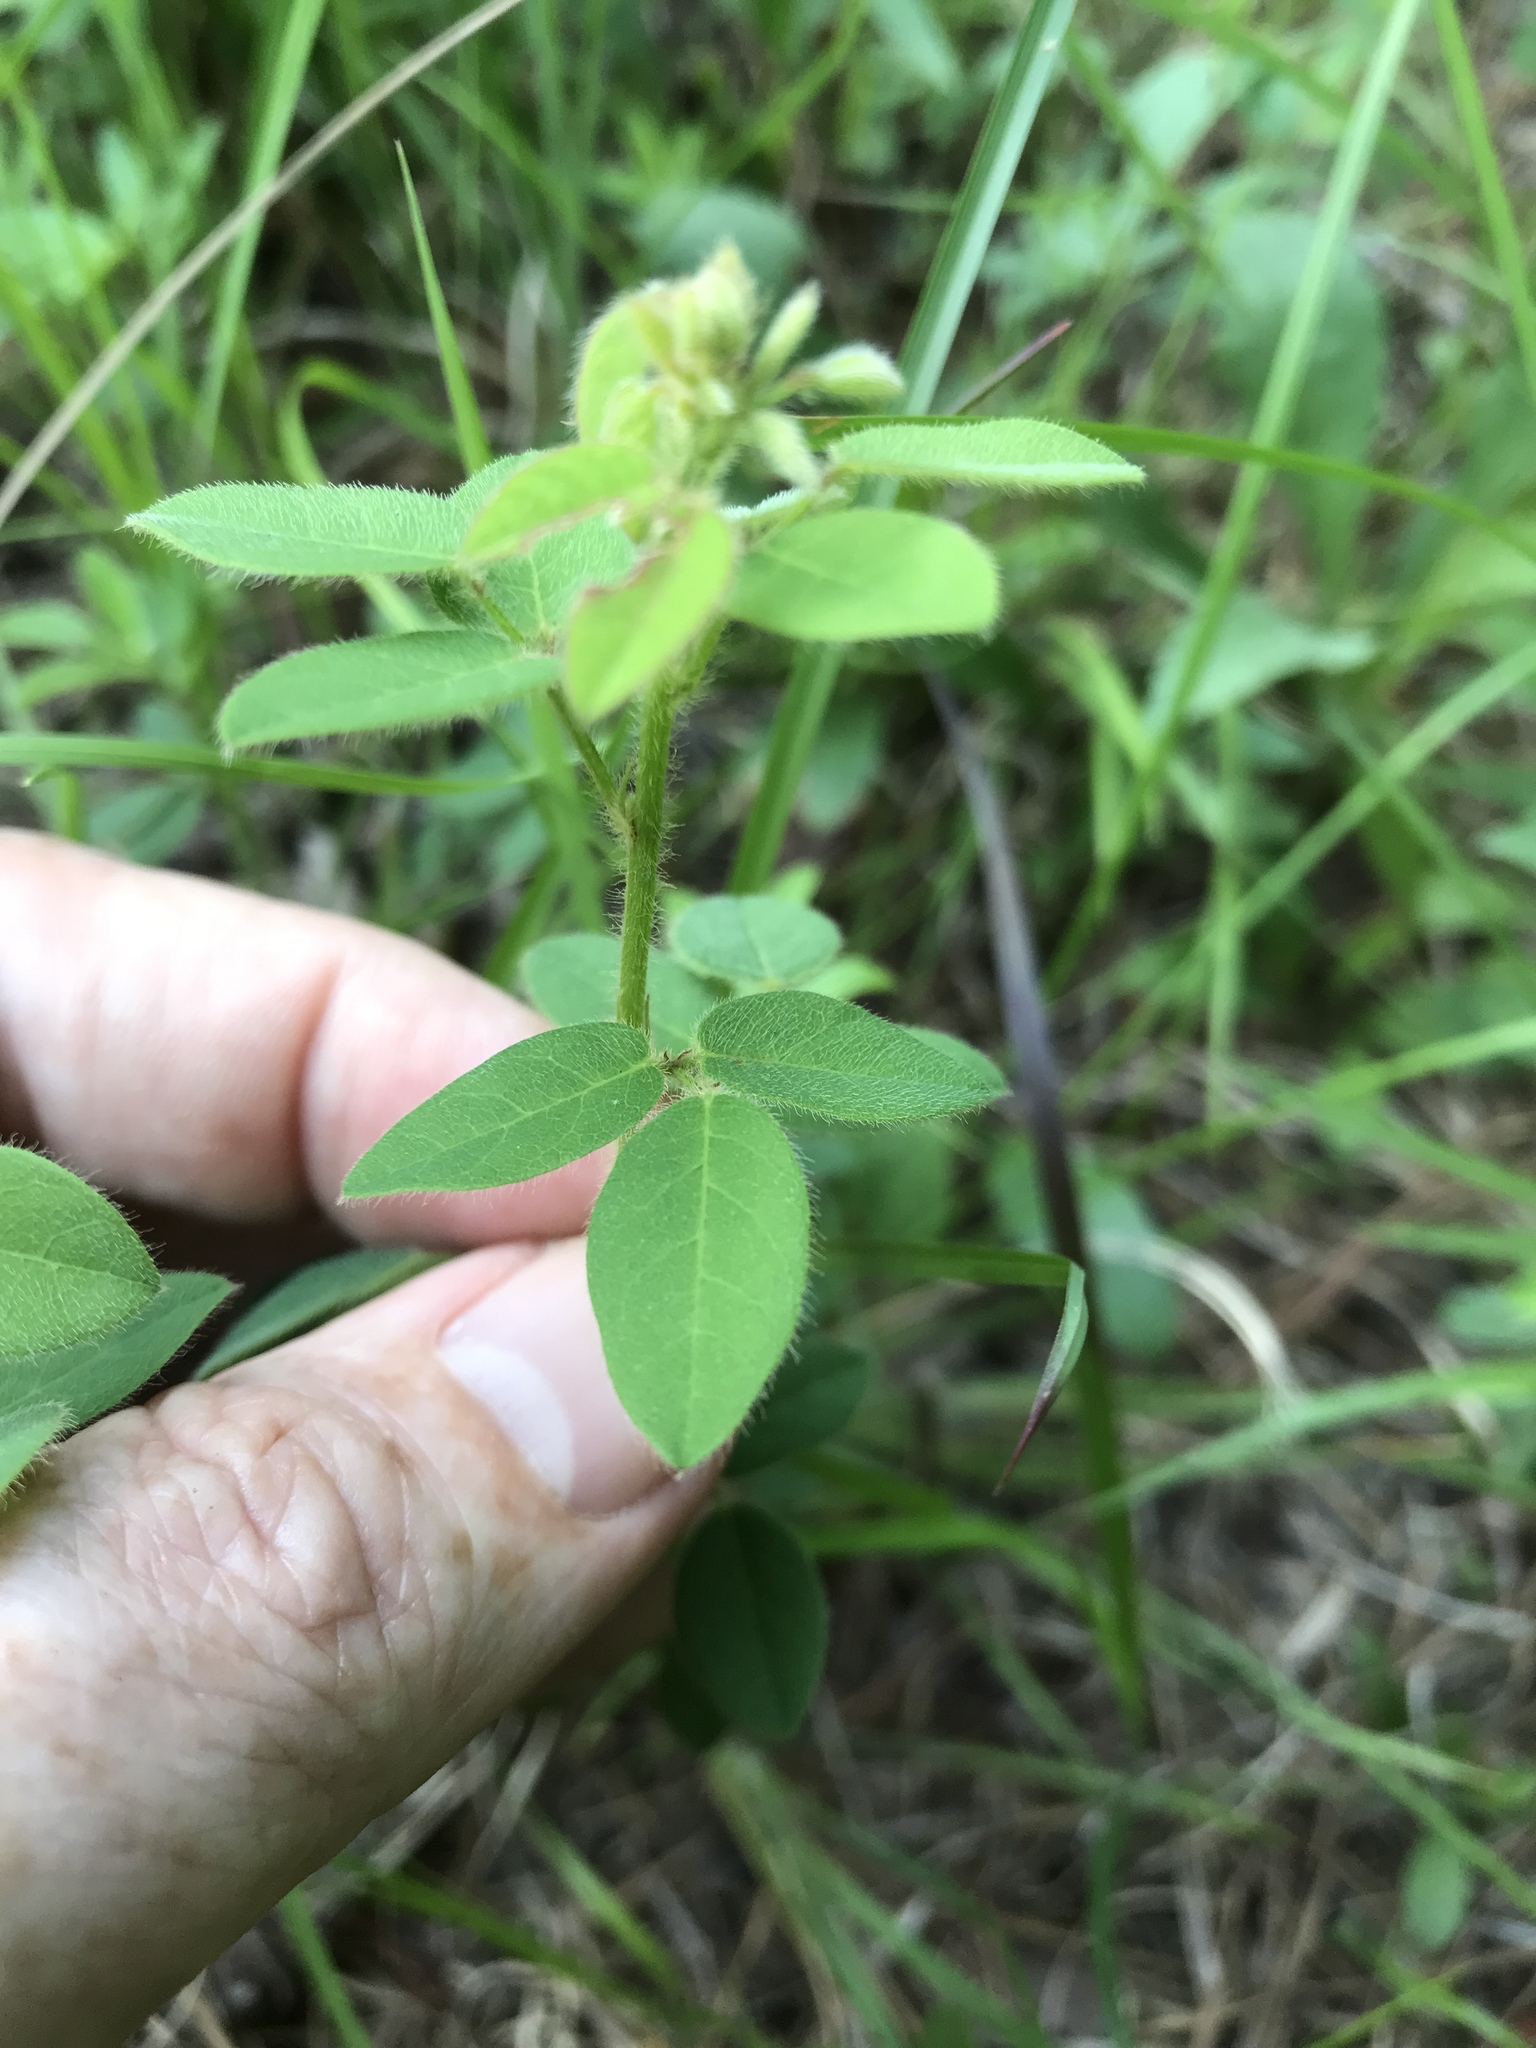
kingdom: Plantae
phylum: Tracheophyta
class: Magnoliopsida
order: Fabales
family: Fabaceae
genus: Desmodium
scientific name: Desmodium ciliare
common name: Hairy small-leaf ticktrefoil
